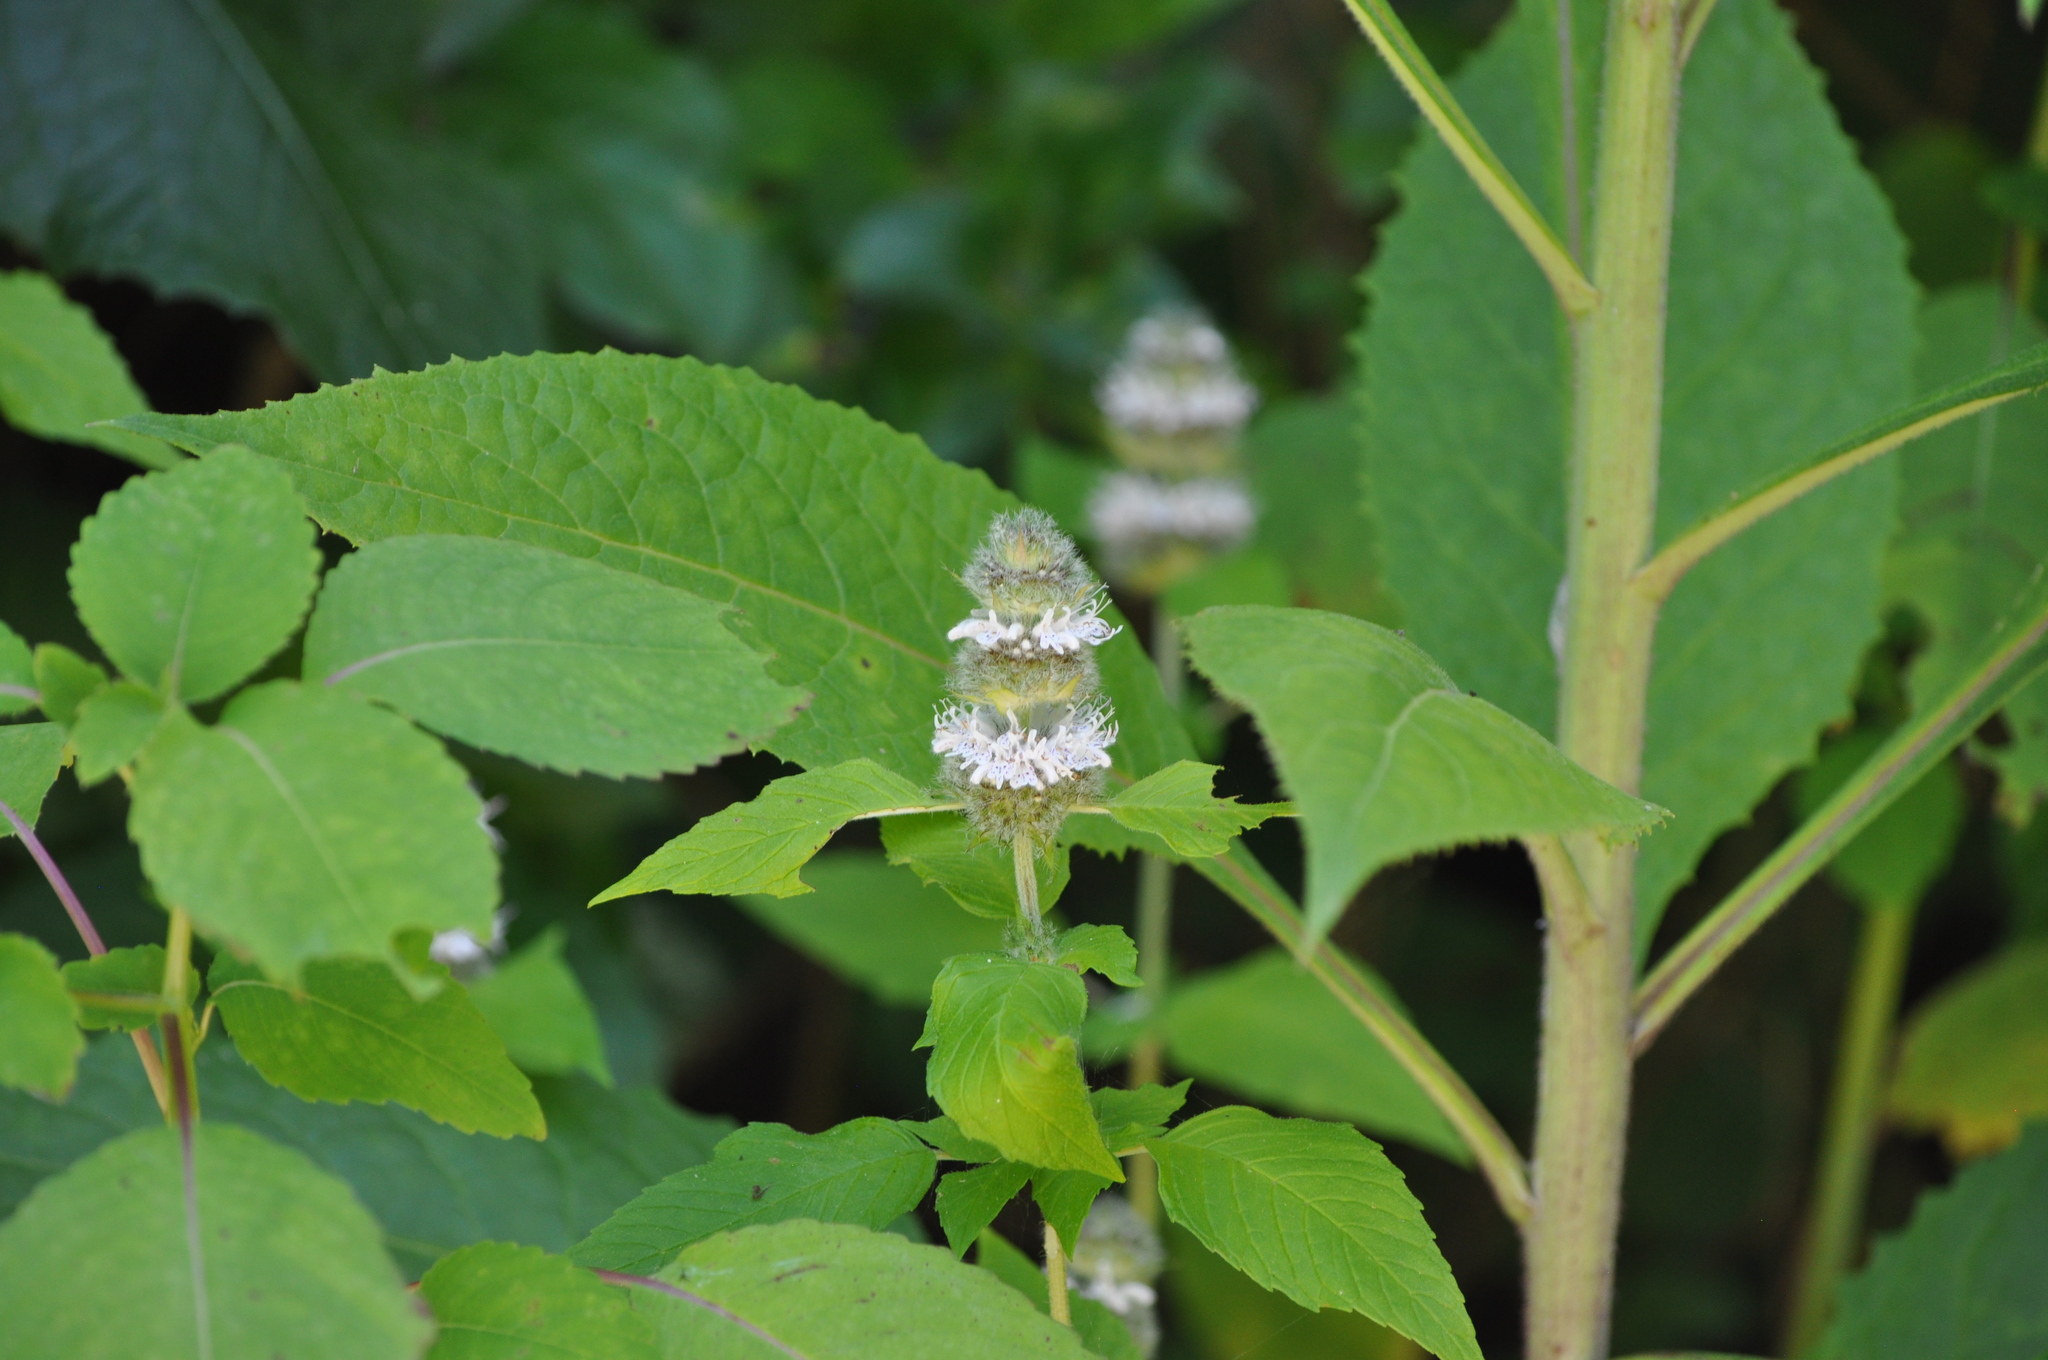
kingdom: Plantae
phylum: Tracheophyta
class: Magnoliopsida
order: Lamiales
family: Lamiaceae
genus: Blephilia
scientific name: Blephilia hirsuta
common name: Hairy blephilia
